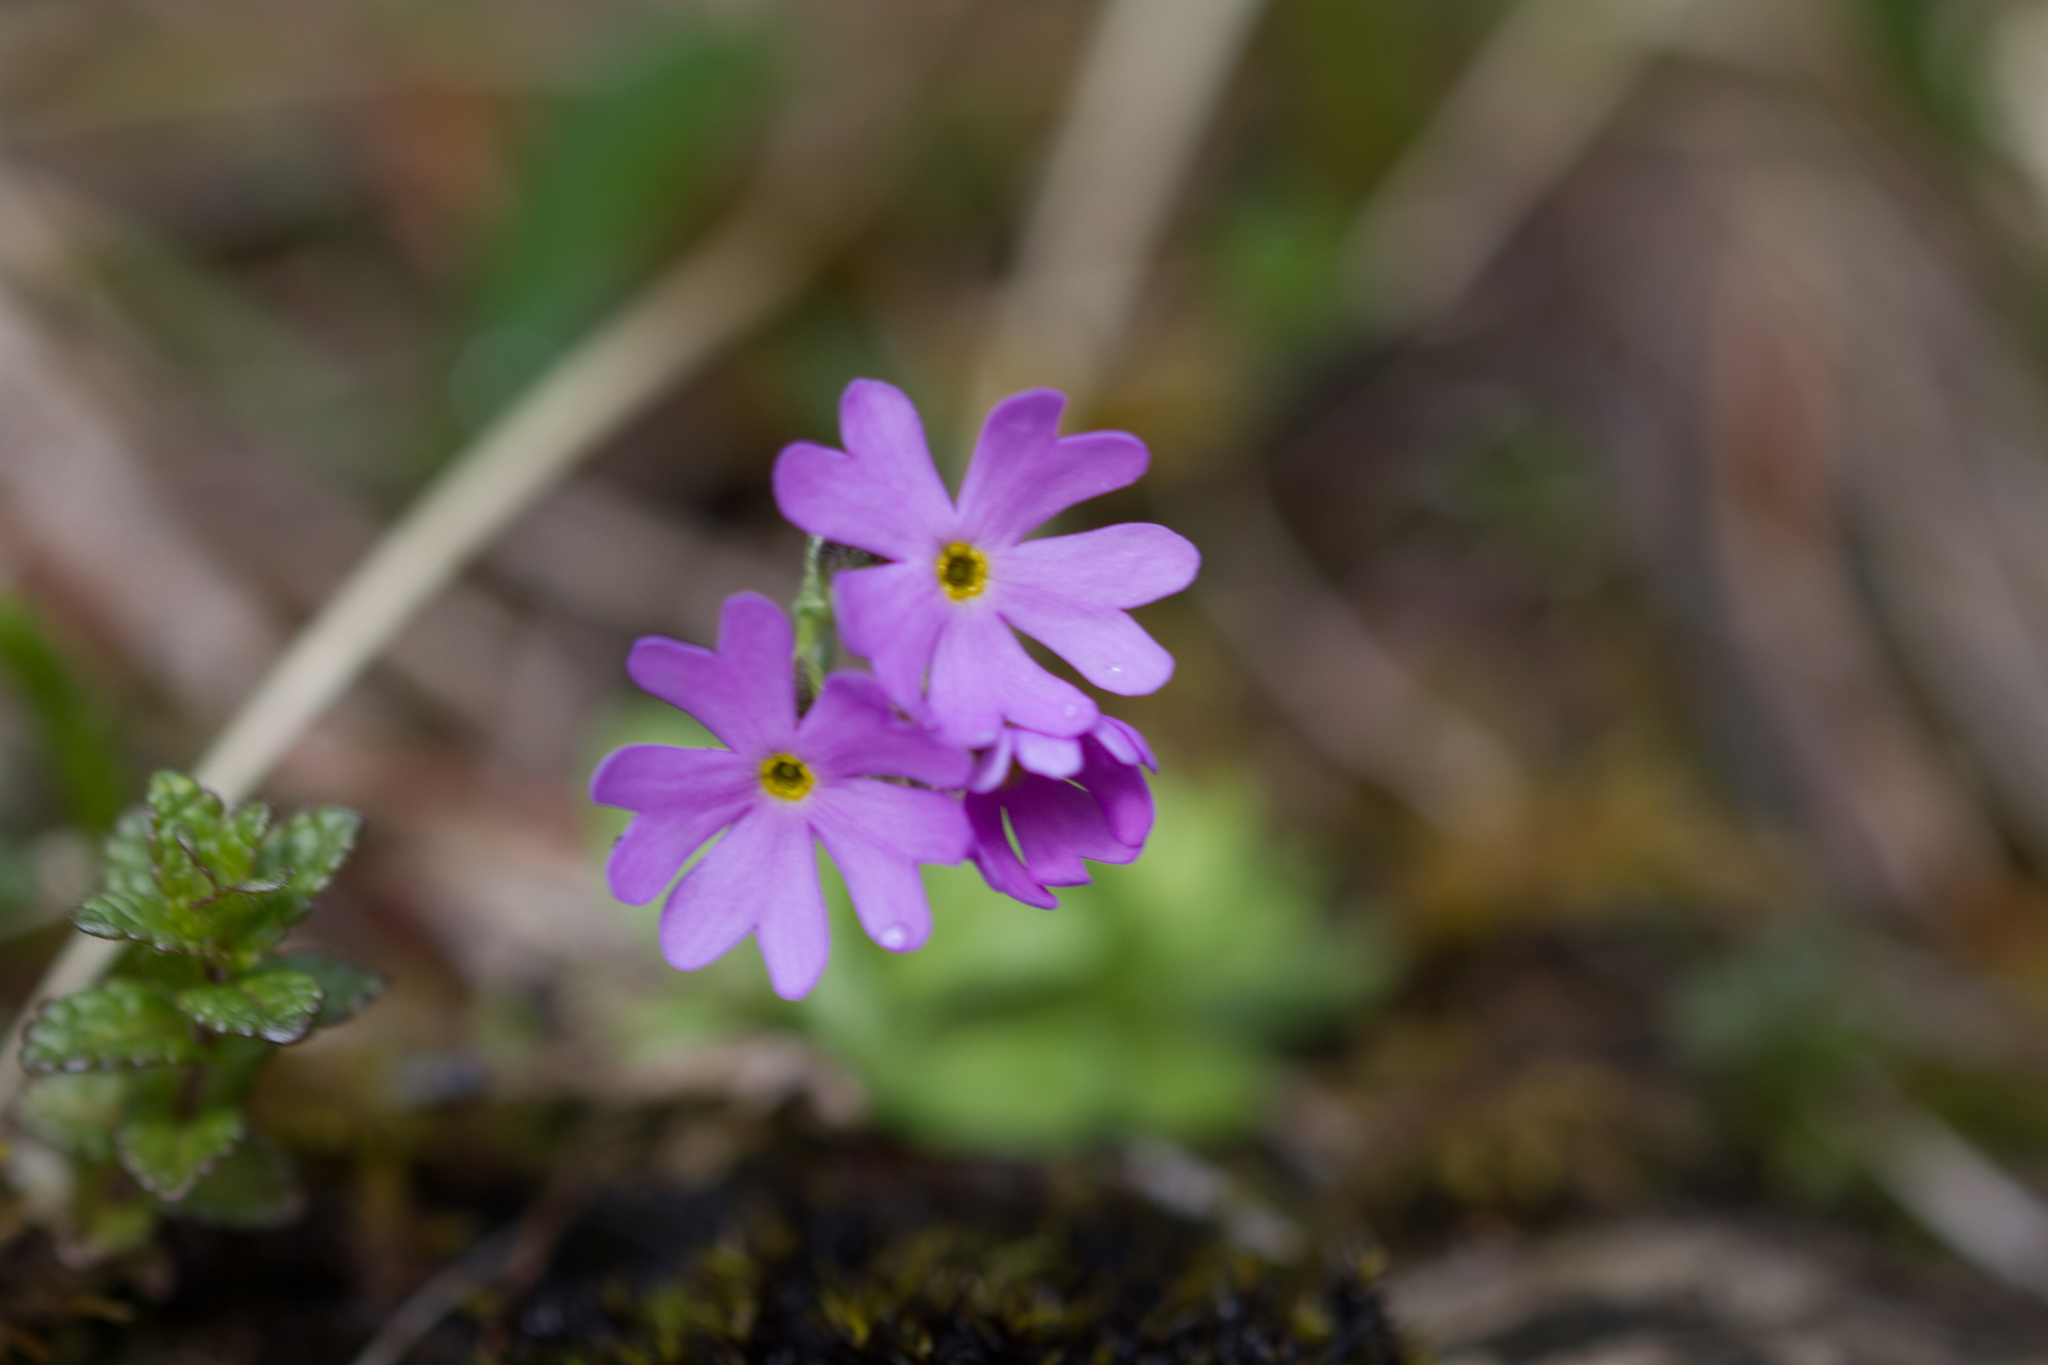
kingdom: Plantae
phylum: Tracheophyta
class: Magnoliopsida
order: Ericales
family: Primulaceae
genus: Primula
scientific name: Primula farinosa
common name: Bird's-eye primrose
